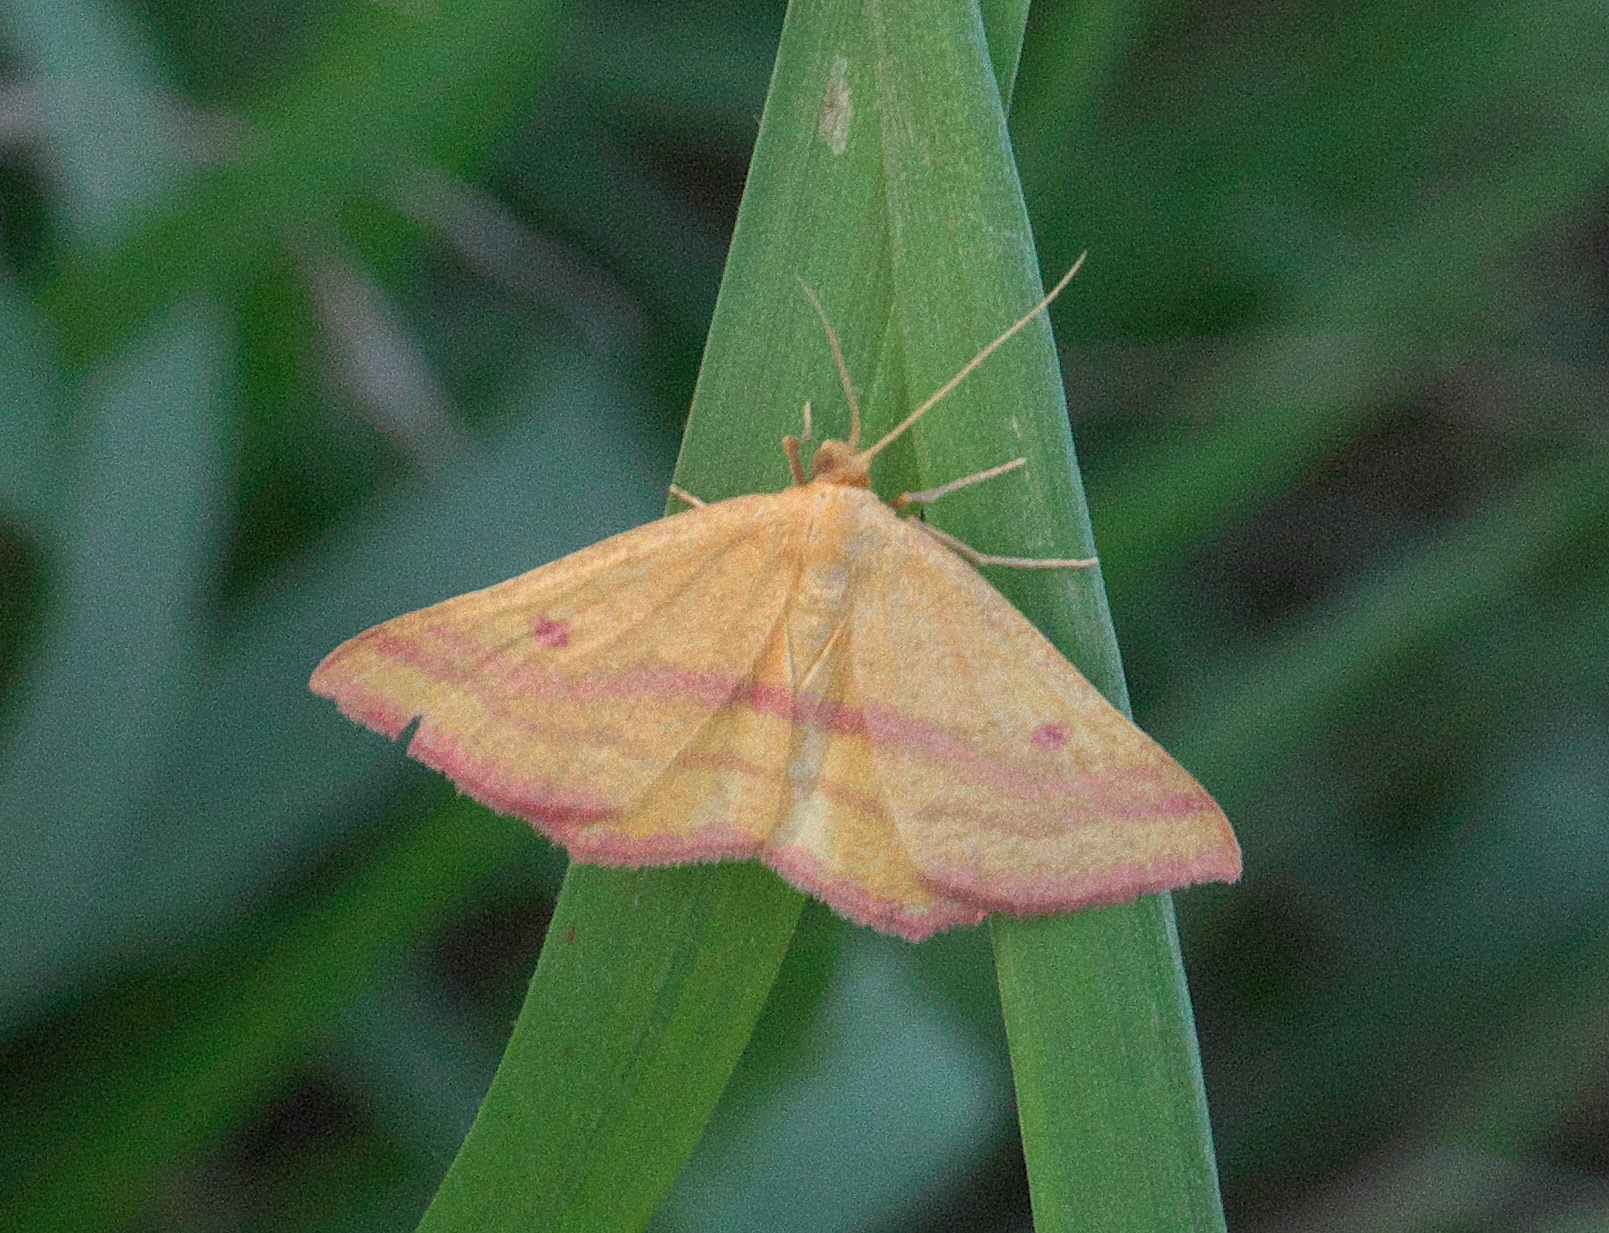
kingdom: Animalia
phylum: Arthropoda
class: Insecta
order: Lepidoptera
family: Geometridae
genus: Haematopis
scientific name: Haematopis grataria
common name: Chickweed geometer
